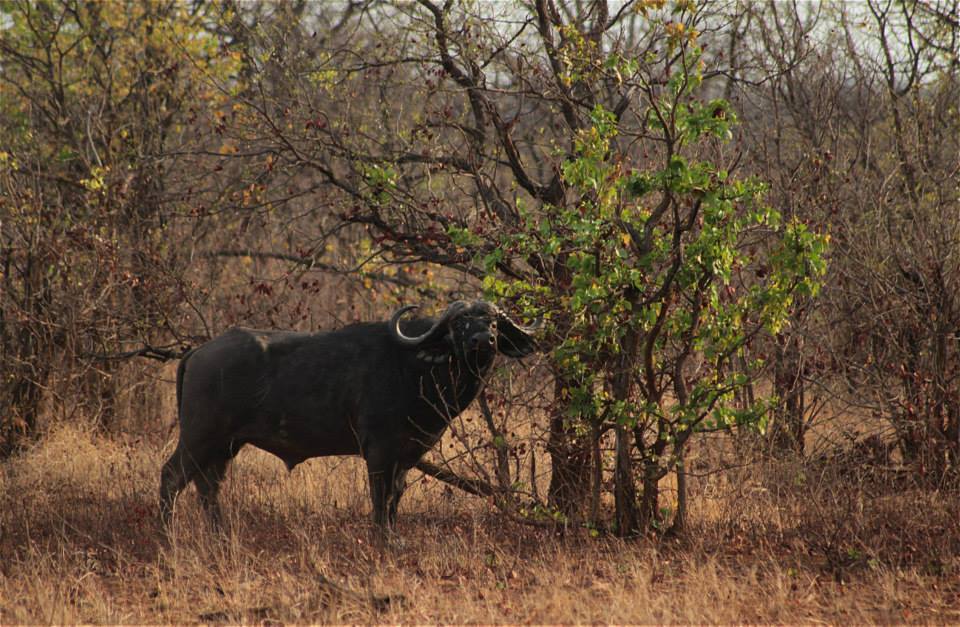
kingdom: Animalia
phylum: Chordata
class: Mammalia
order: Artiodactyla
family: Bovidae
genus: Syncerus
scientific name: Syncerus caffer
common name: African buffalo
